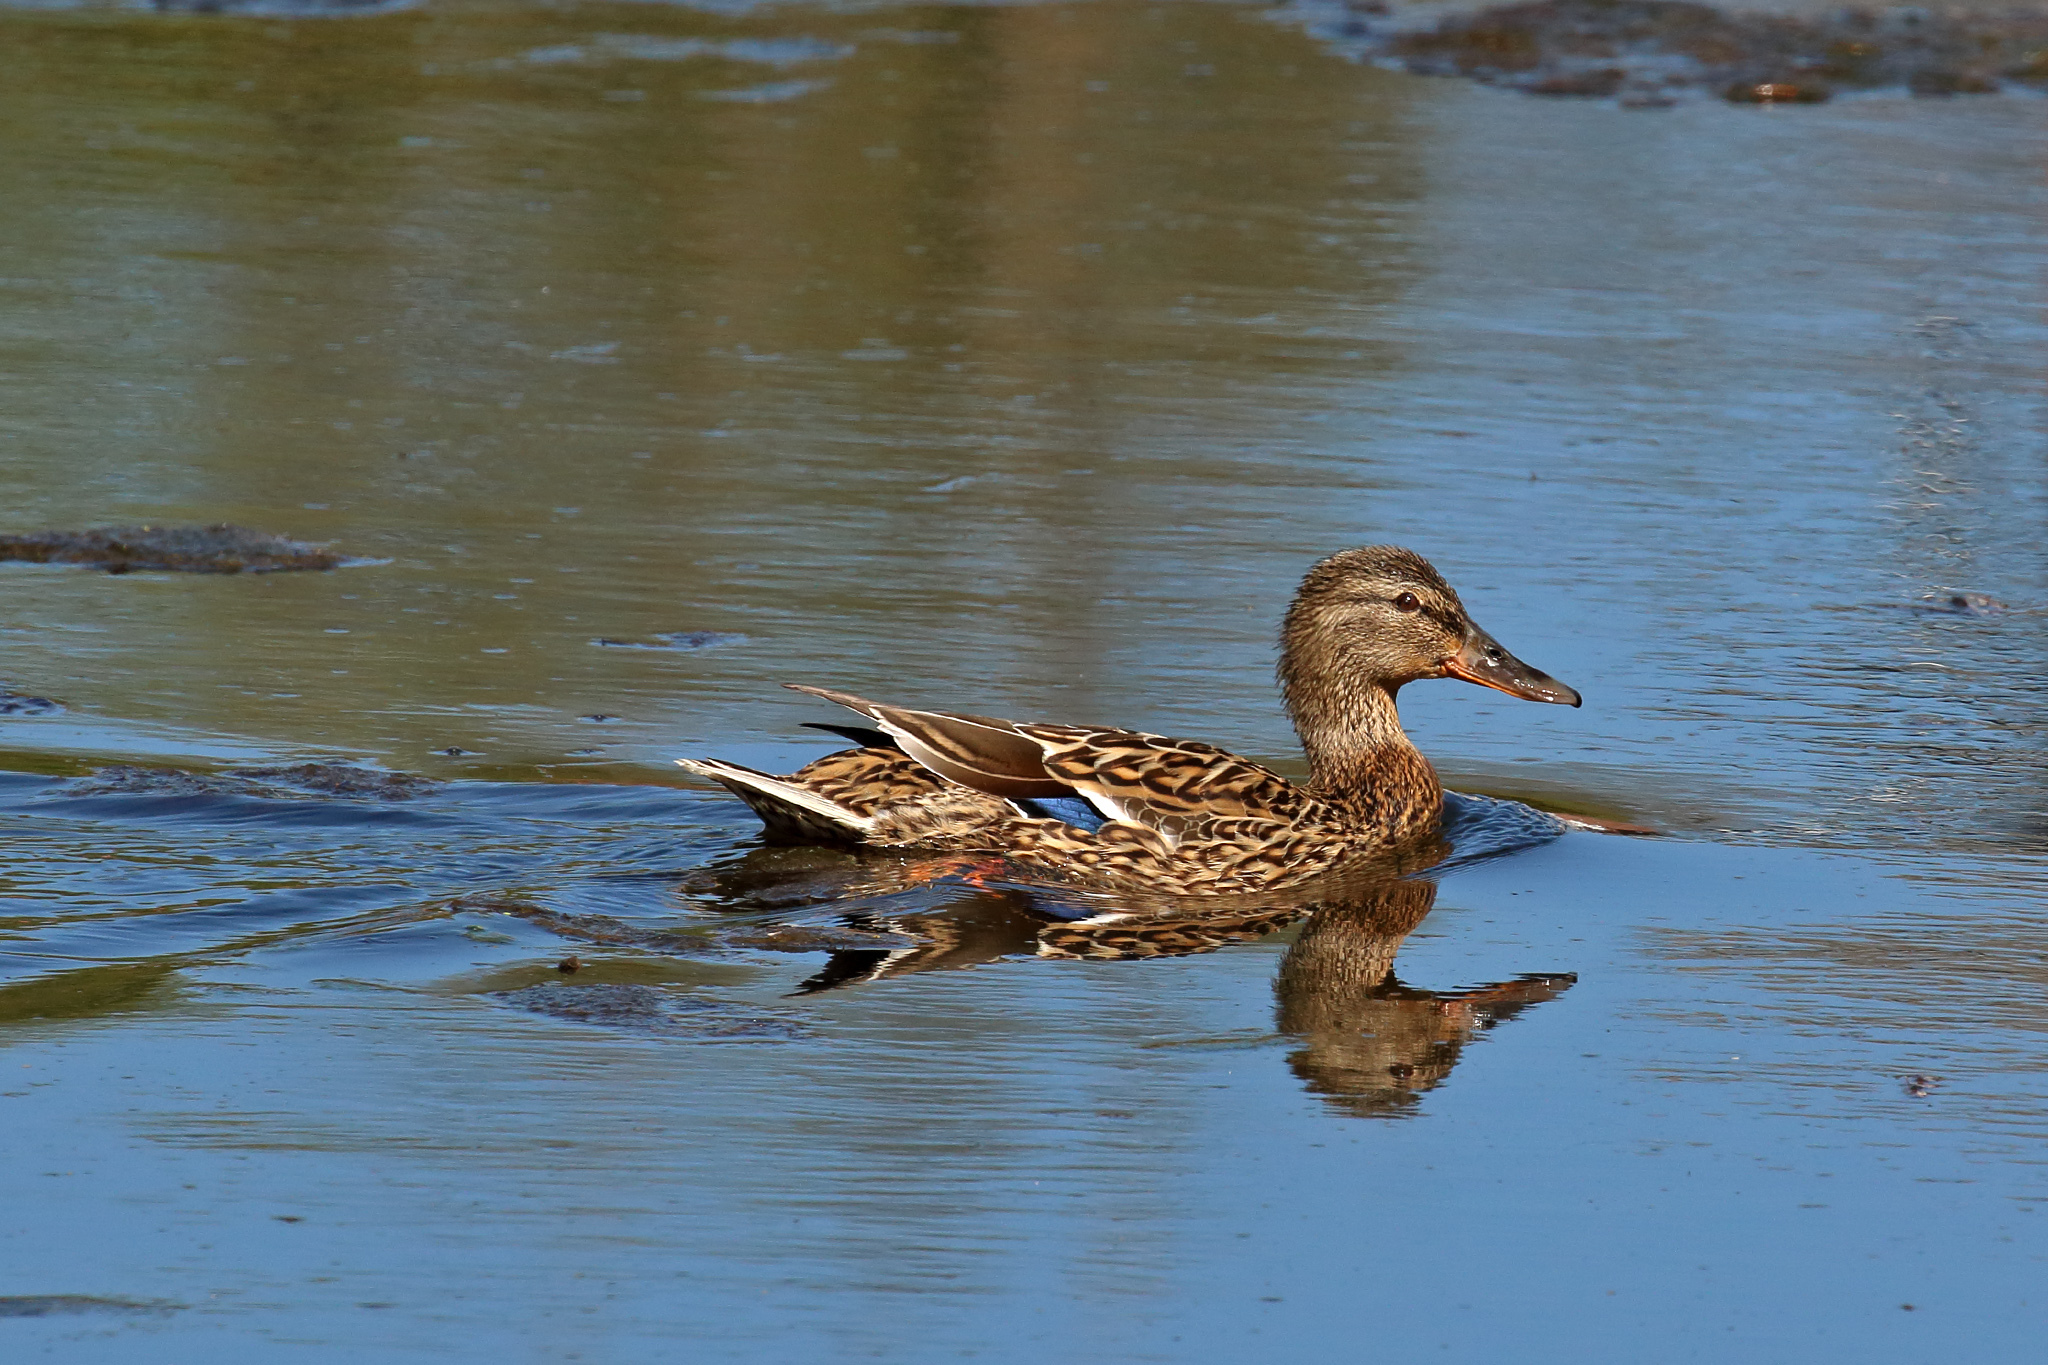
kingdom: Animalia
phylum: Chordata
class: Aves
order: Anseriformes
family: Anatidae
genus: Anas
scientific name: Anas platyrhynchos
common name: Mallard
